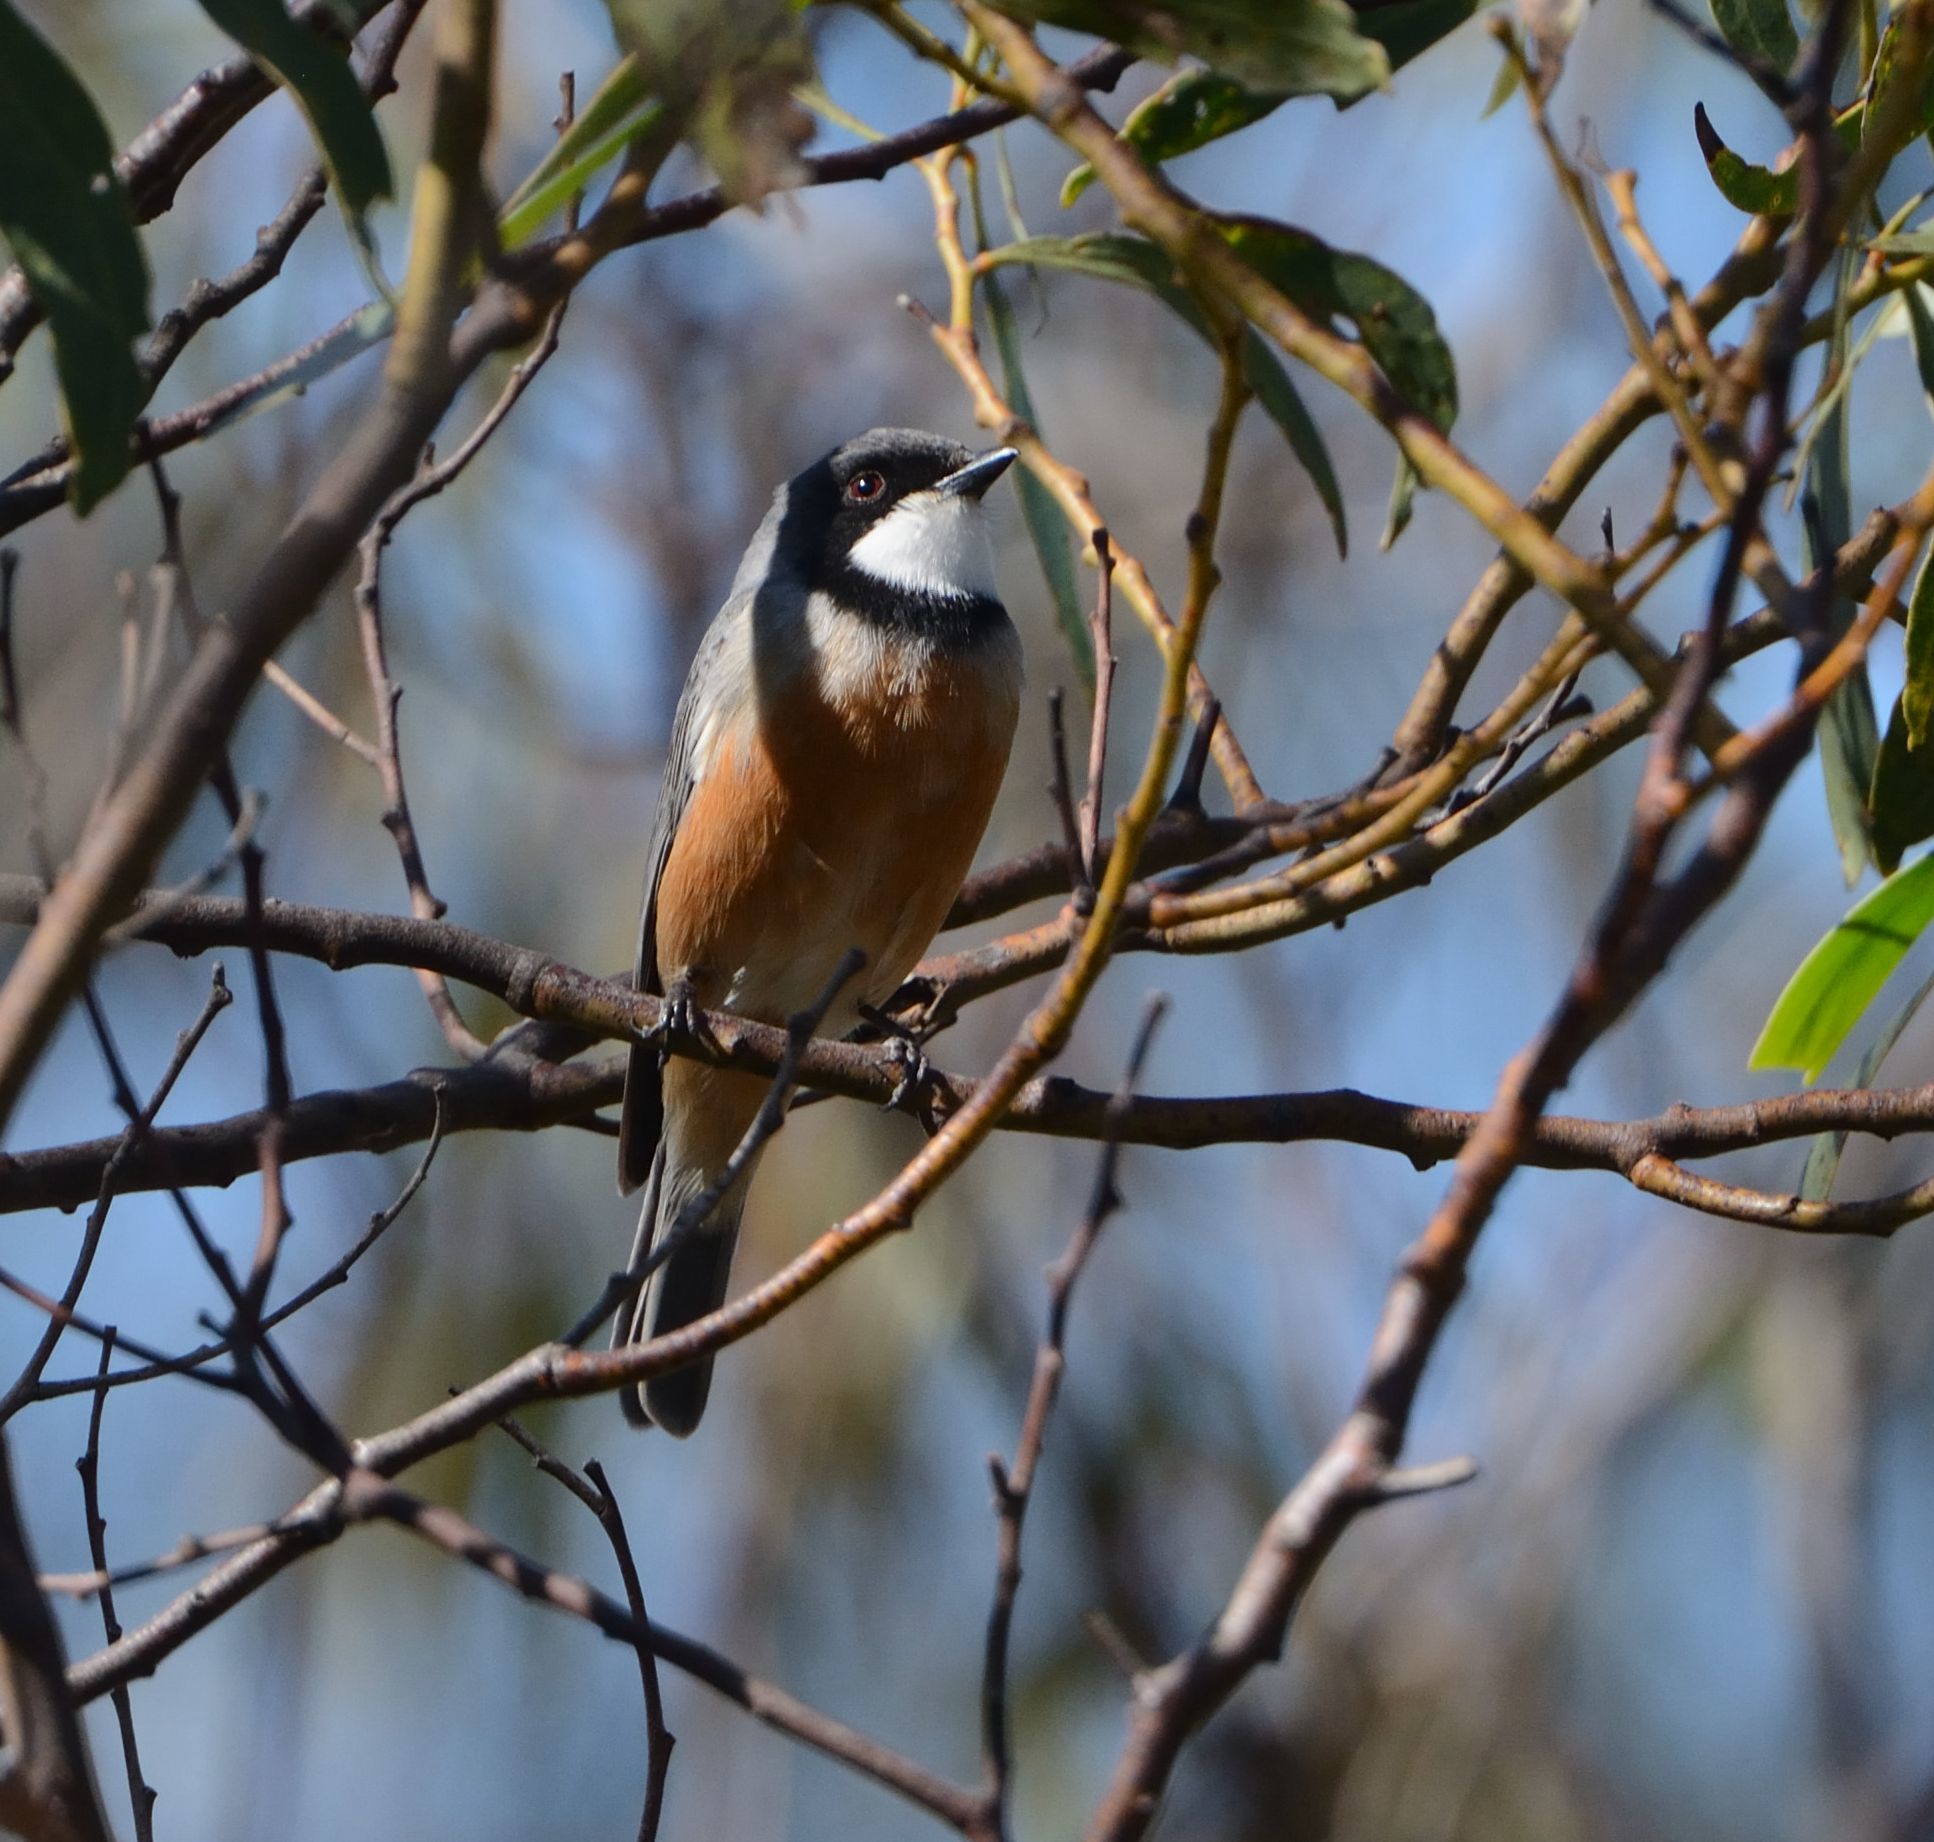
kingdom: Animalia
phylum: Chordata
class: Aves
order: Passeriformes
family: Pachycephalidae
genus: Pachycephala
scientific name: Pachycephala rufiventris
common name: Rufous whistler
